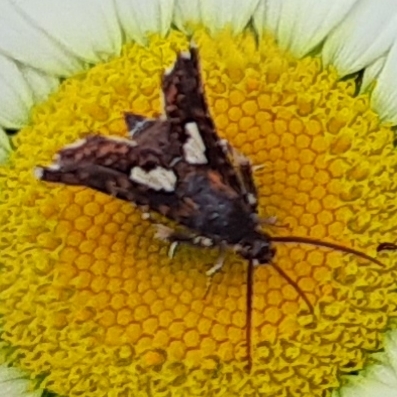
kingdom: Animalia
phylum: Arthropoda
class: Insecta
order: Lepidoptera
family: Thyrididae
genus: Thyris
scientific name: Thyris maculata
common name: Spotted thyris moth
